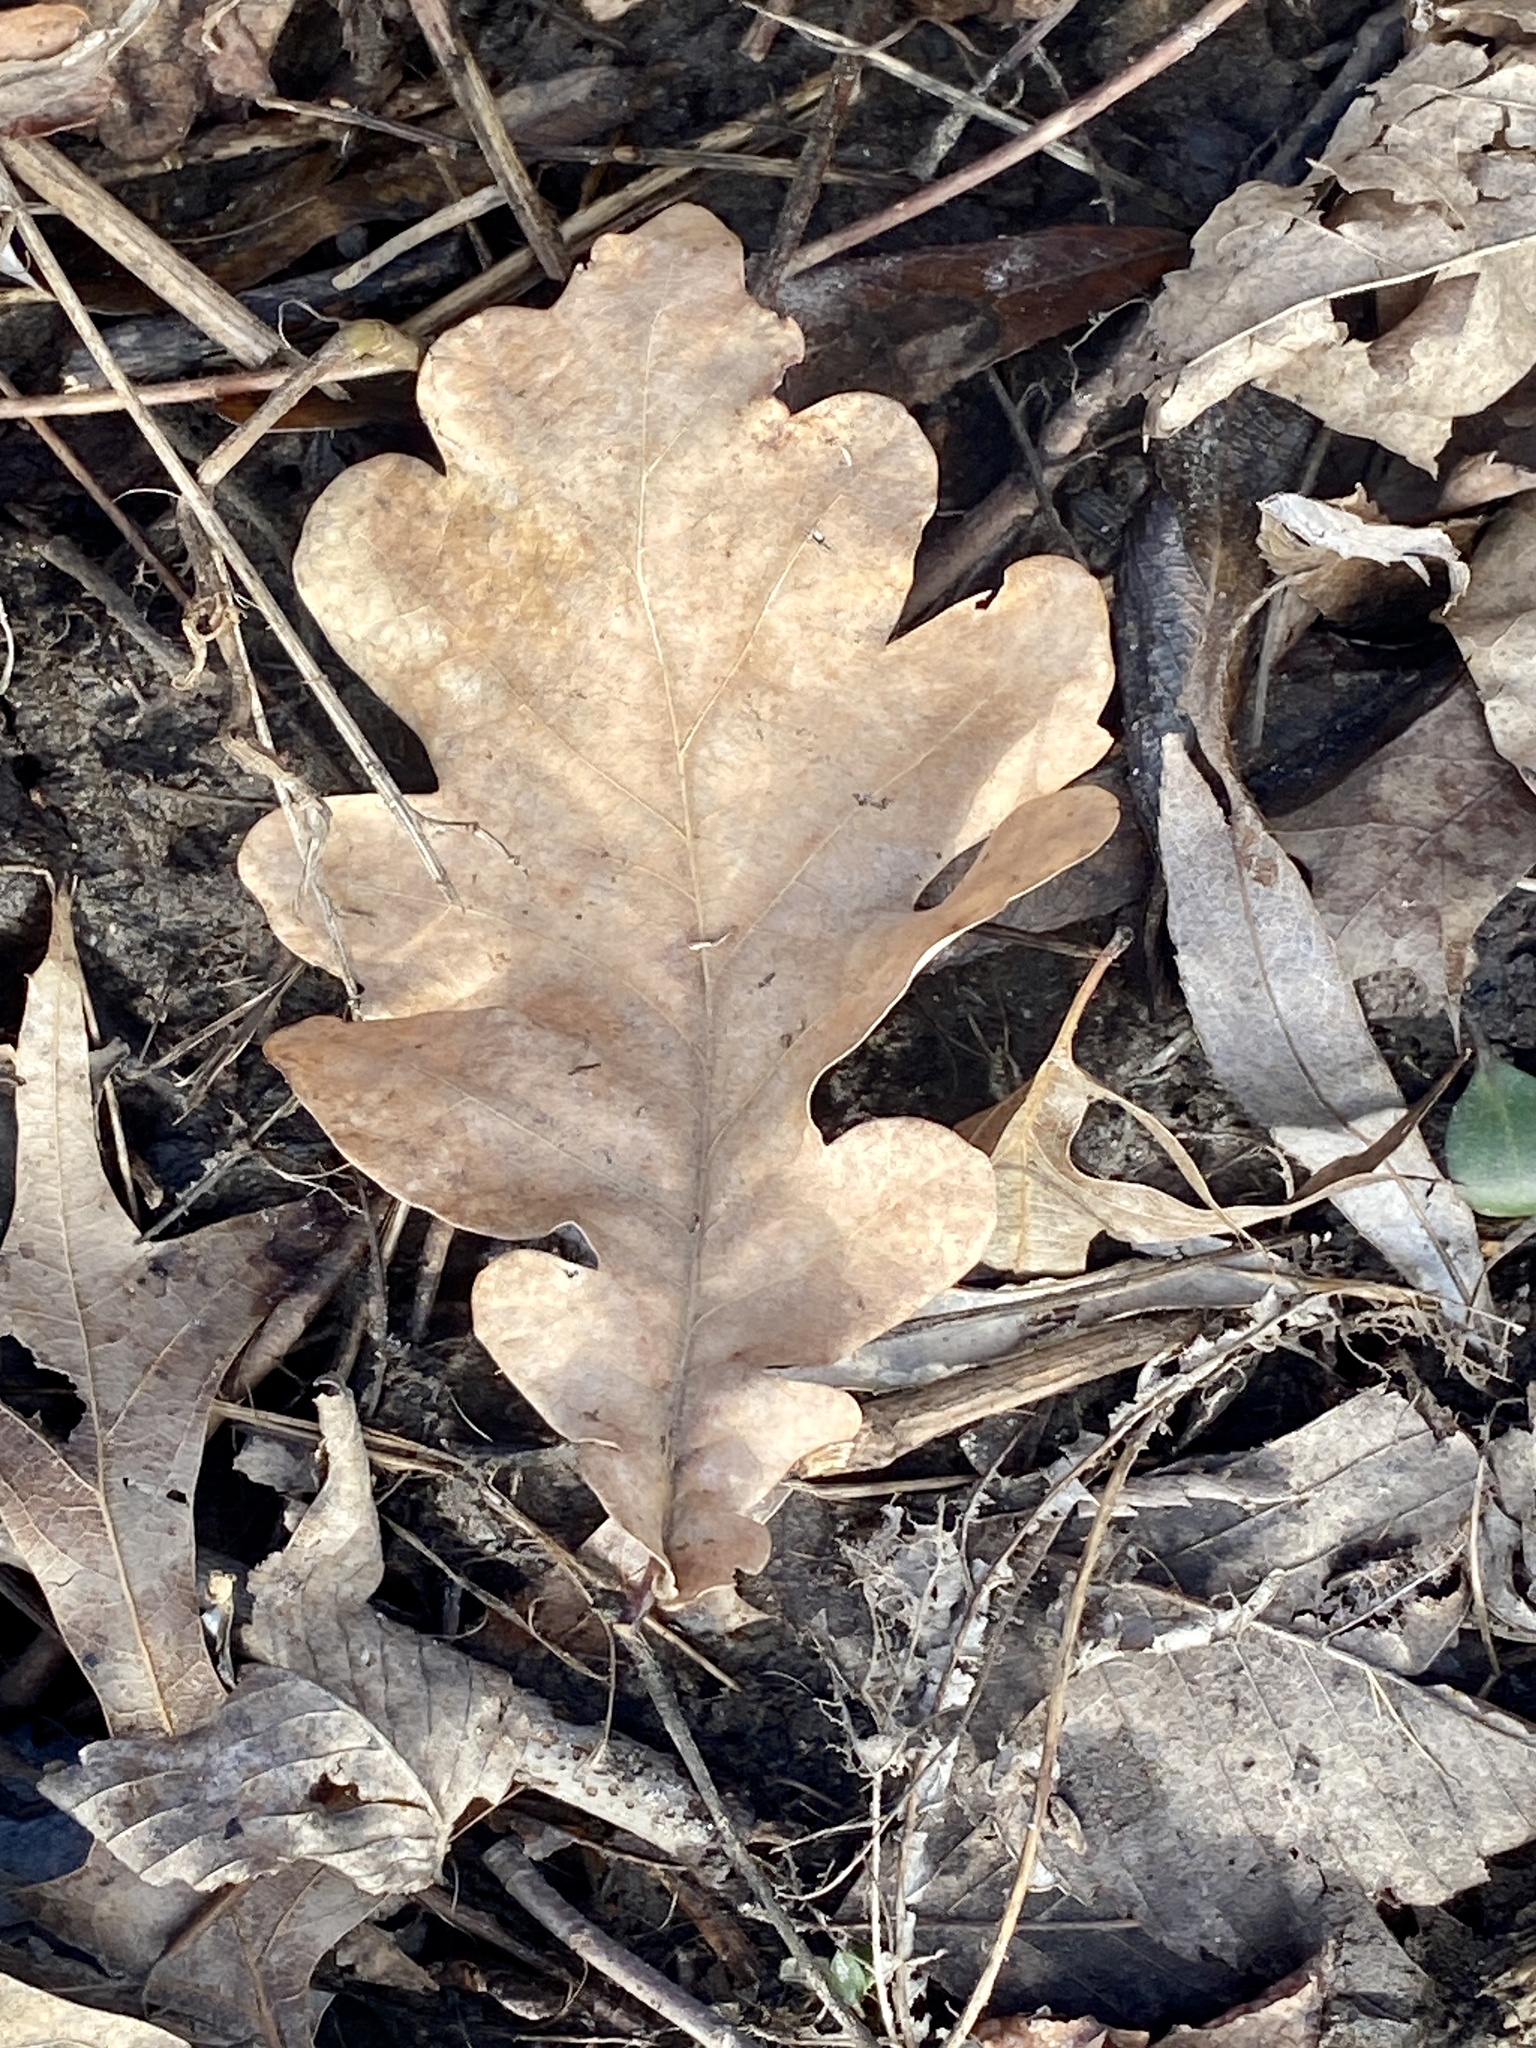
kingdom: Plantae
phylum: Tracheophyta
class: Magnoliopsida
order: Fagales
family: Fagaceae
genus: Quercus
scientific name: Quercus alba
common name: White oak
